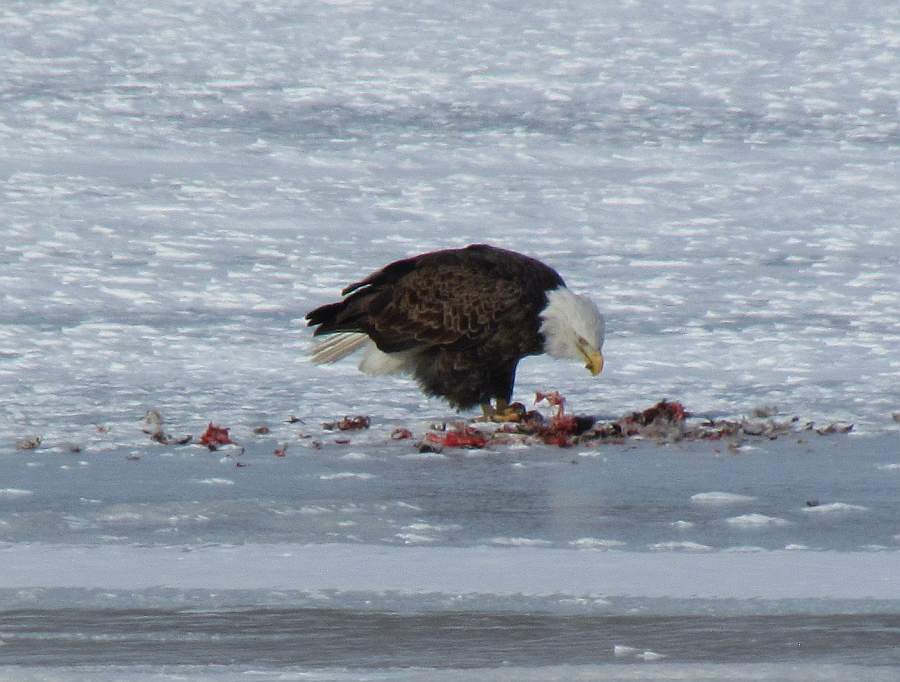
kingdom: Animalia
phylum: Chordata
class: Aves
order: Accipitriformes
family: Accipitridae
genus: Haliaeetus
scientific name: Haliaeetus leucocephalus
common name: Bald eagle
